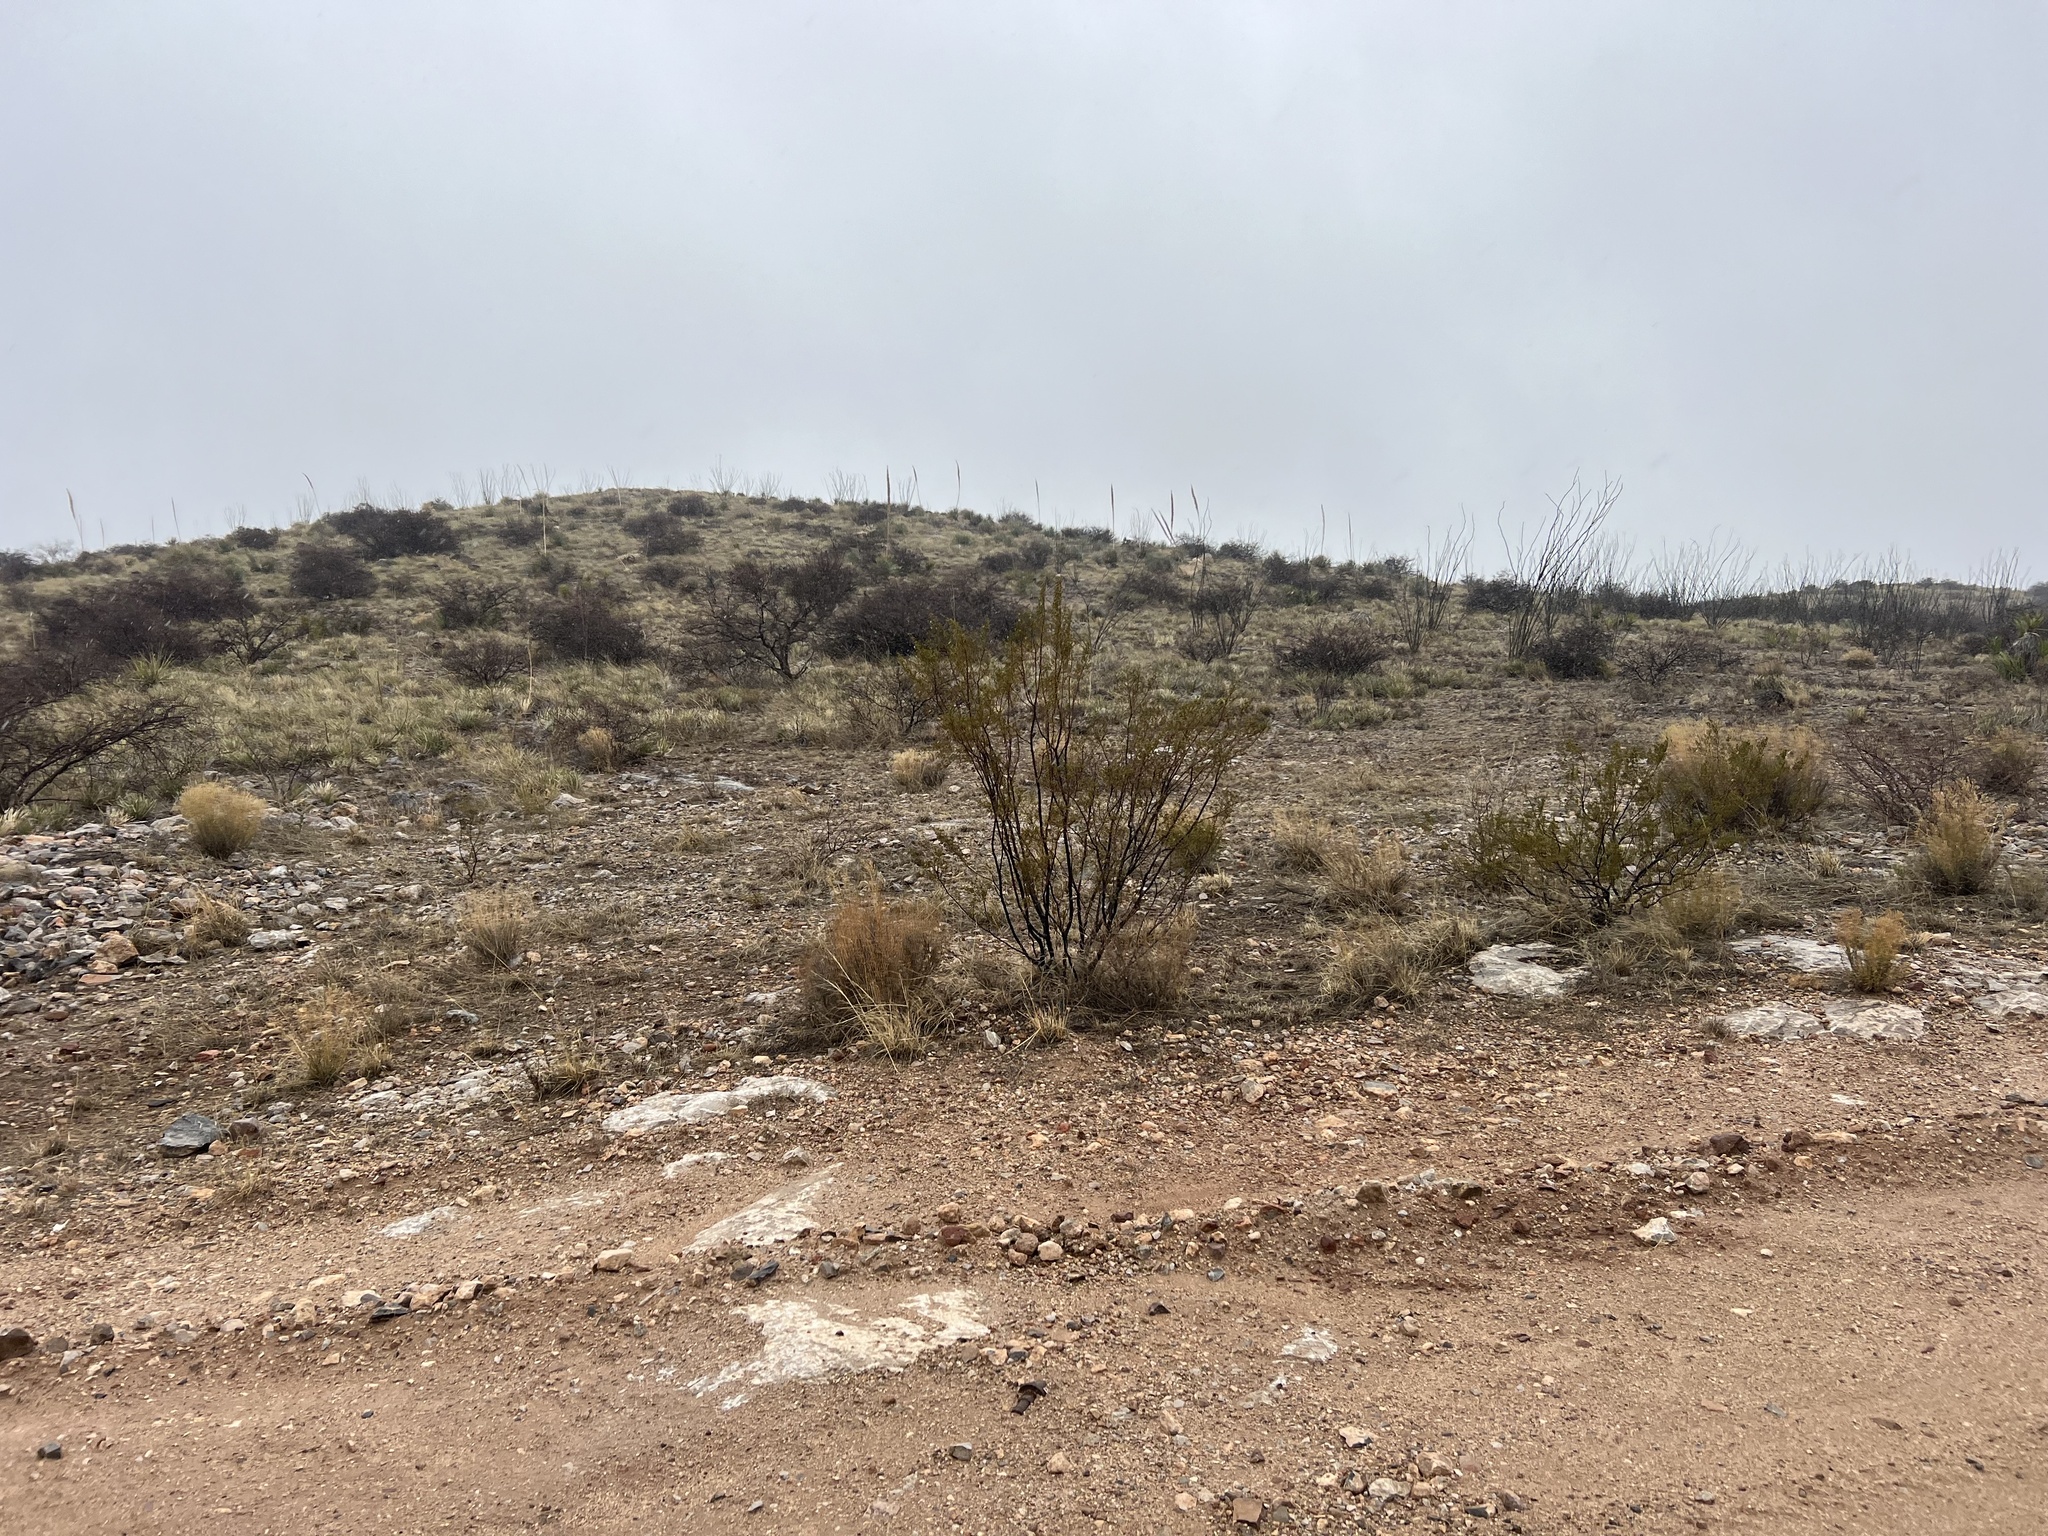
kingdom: Plantae
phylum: Tracheophyta
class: Magnoliopsida
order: Zygophyllales
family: Zygophyllaceae
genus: Larrea
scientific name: Larrea tridentata
